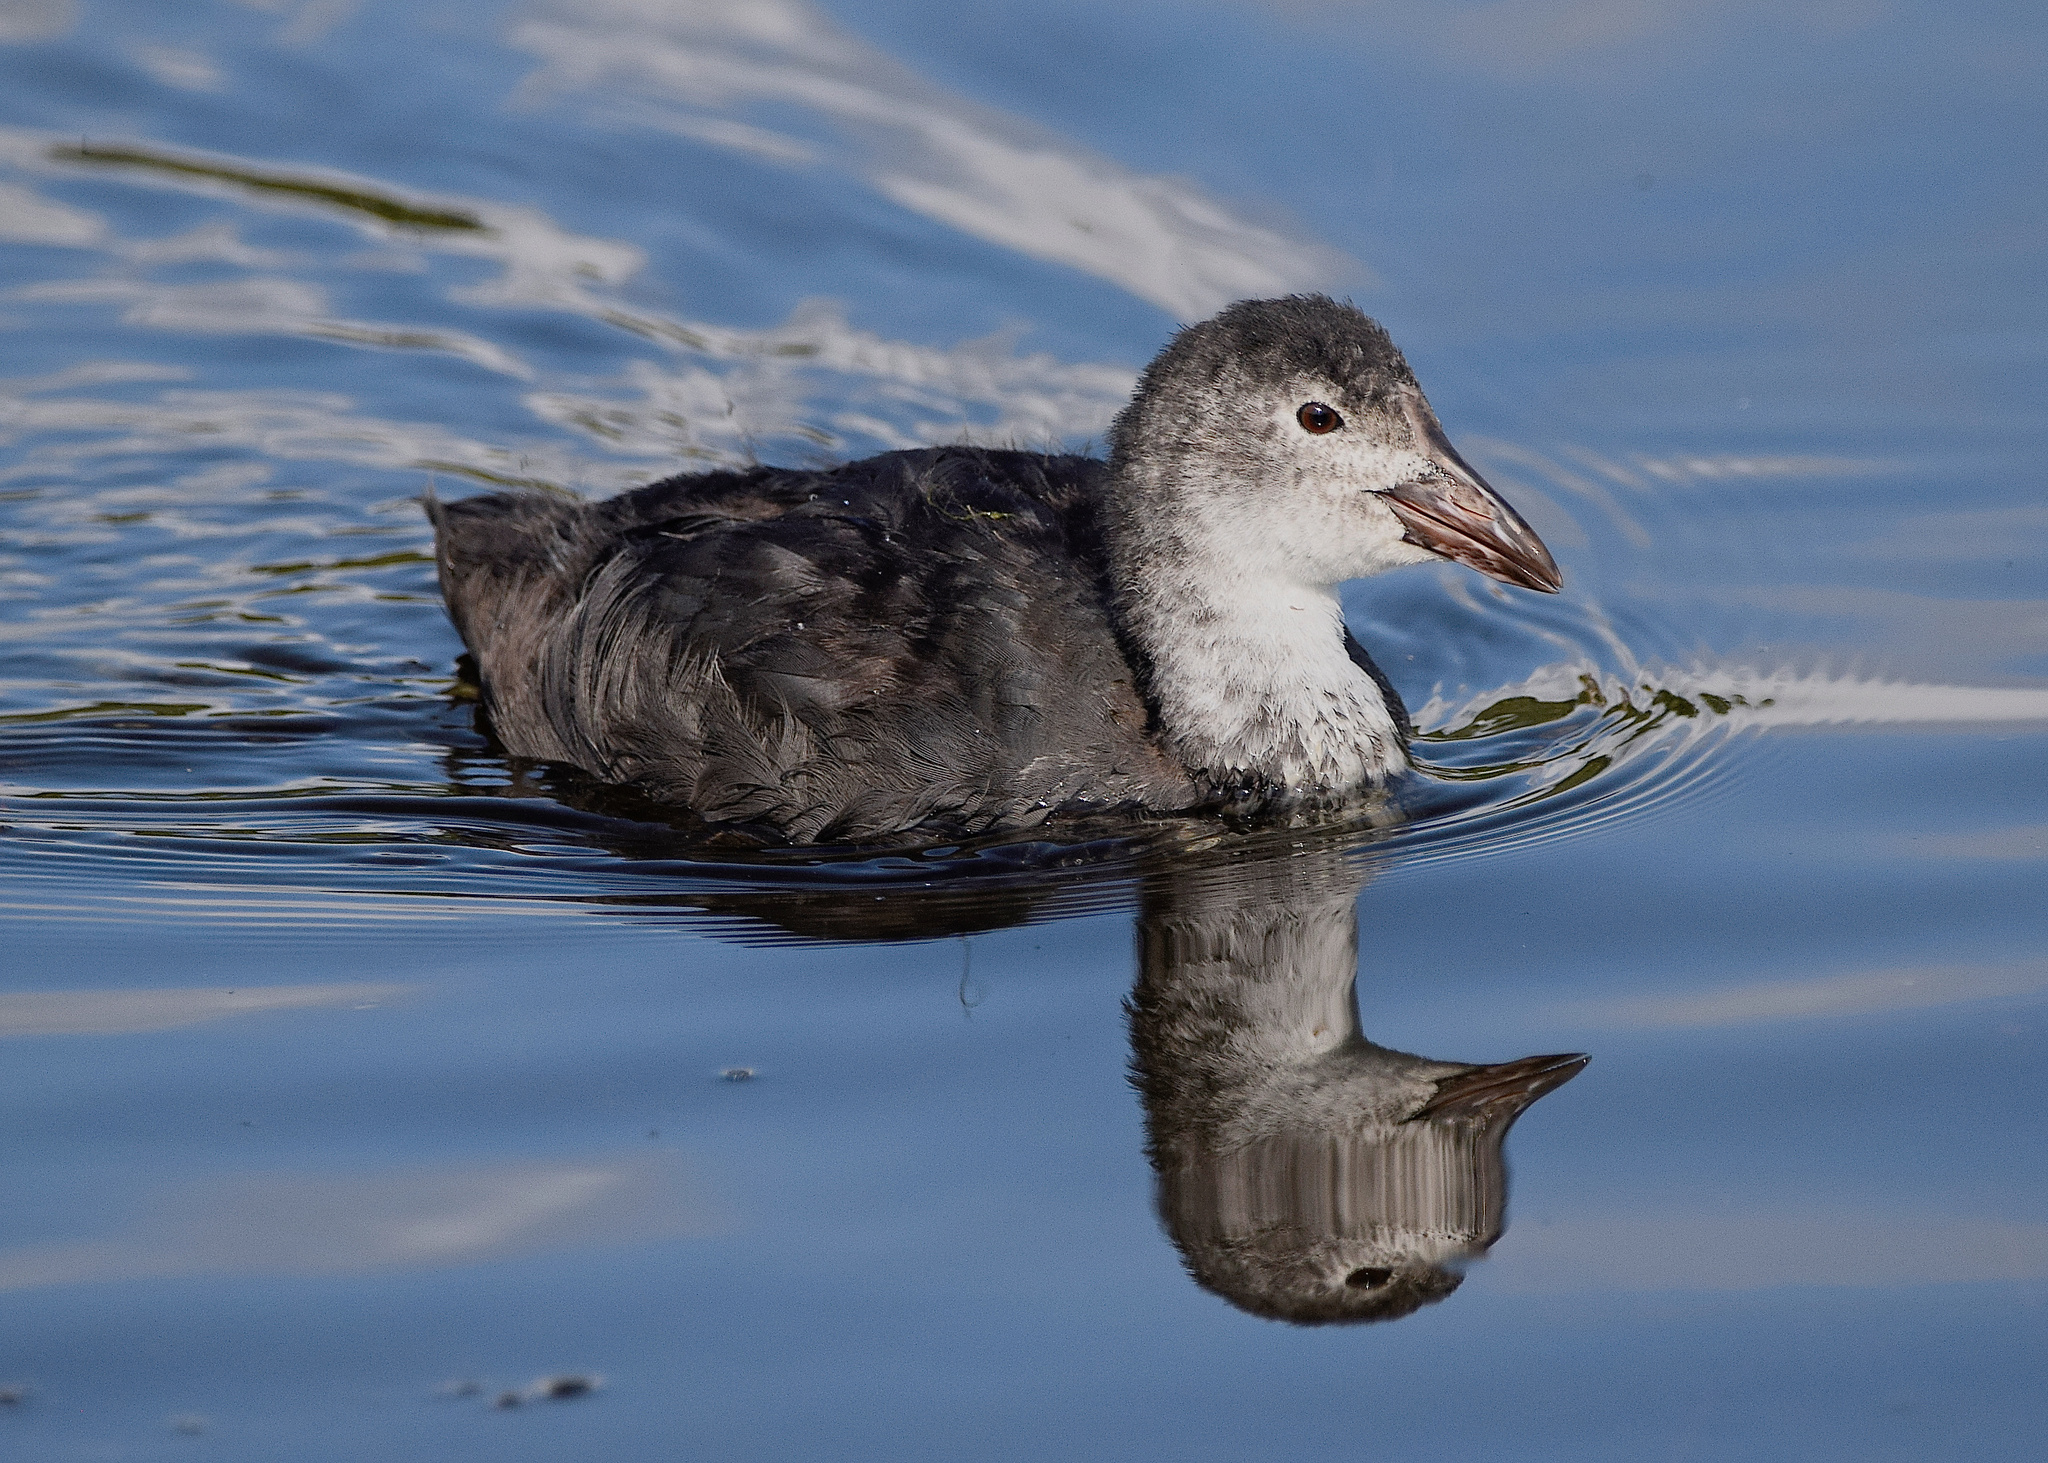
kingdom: Animalia
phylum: Chordata
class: Aves
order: Gruiformes
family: Rallidae
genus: Fulica
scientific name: Fulica atra
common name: Eurasian coot
